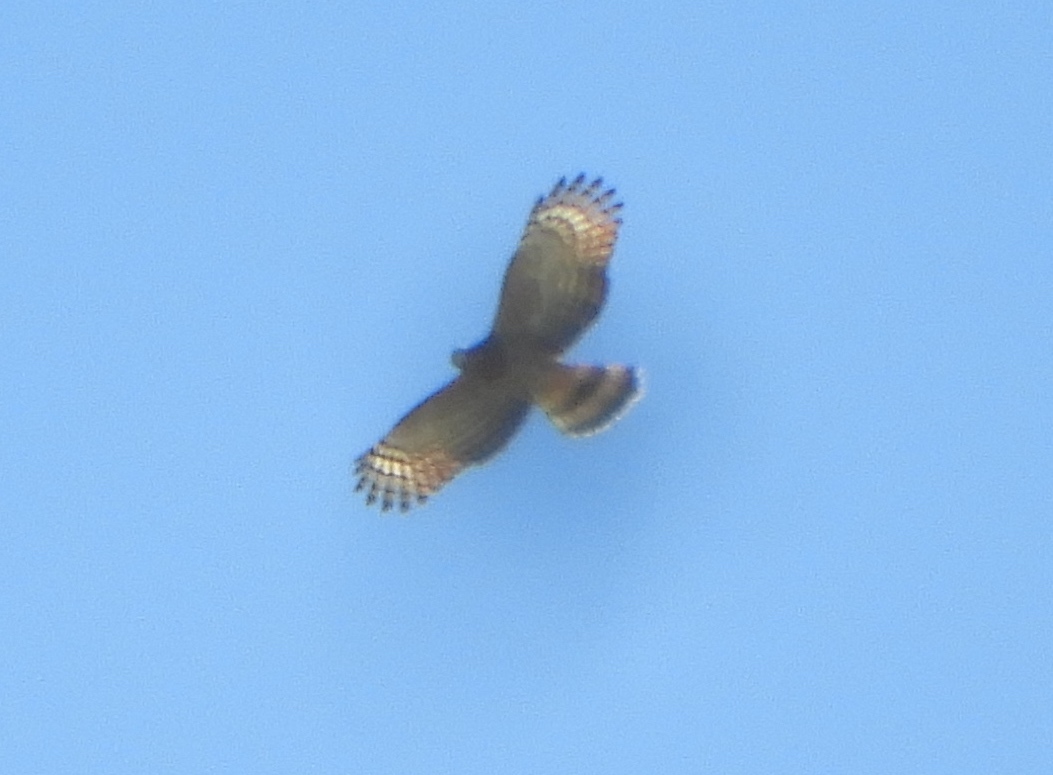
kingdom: Animalia
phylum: Chordata
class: Aves
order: Accipitriformes
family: Accipitridae
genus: Chondrohierax
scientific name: Chondrohierax uncinatus
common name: Hook-billed kite
